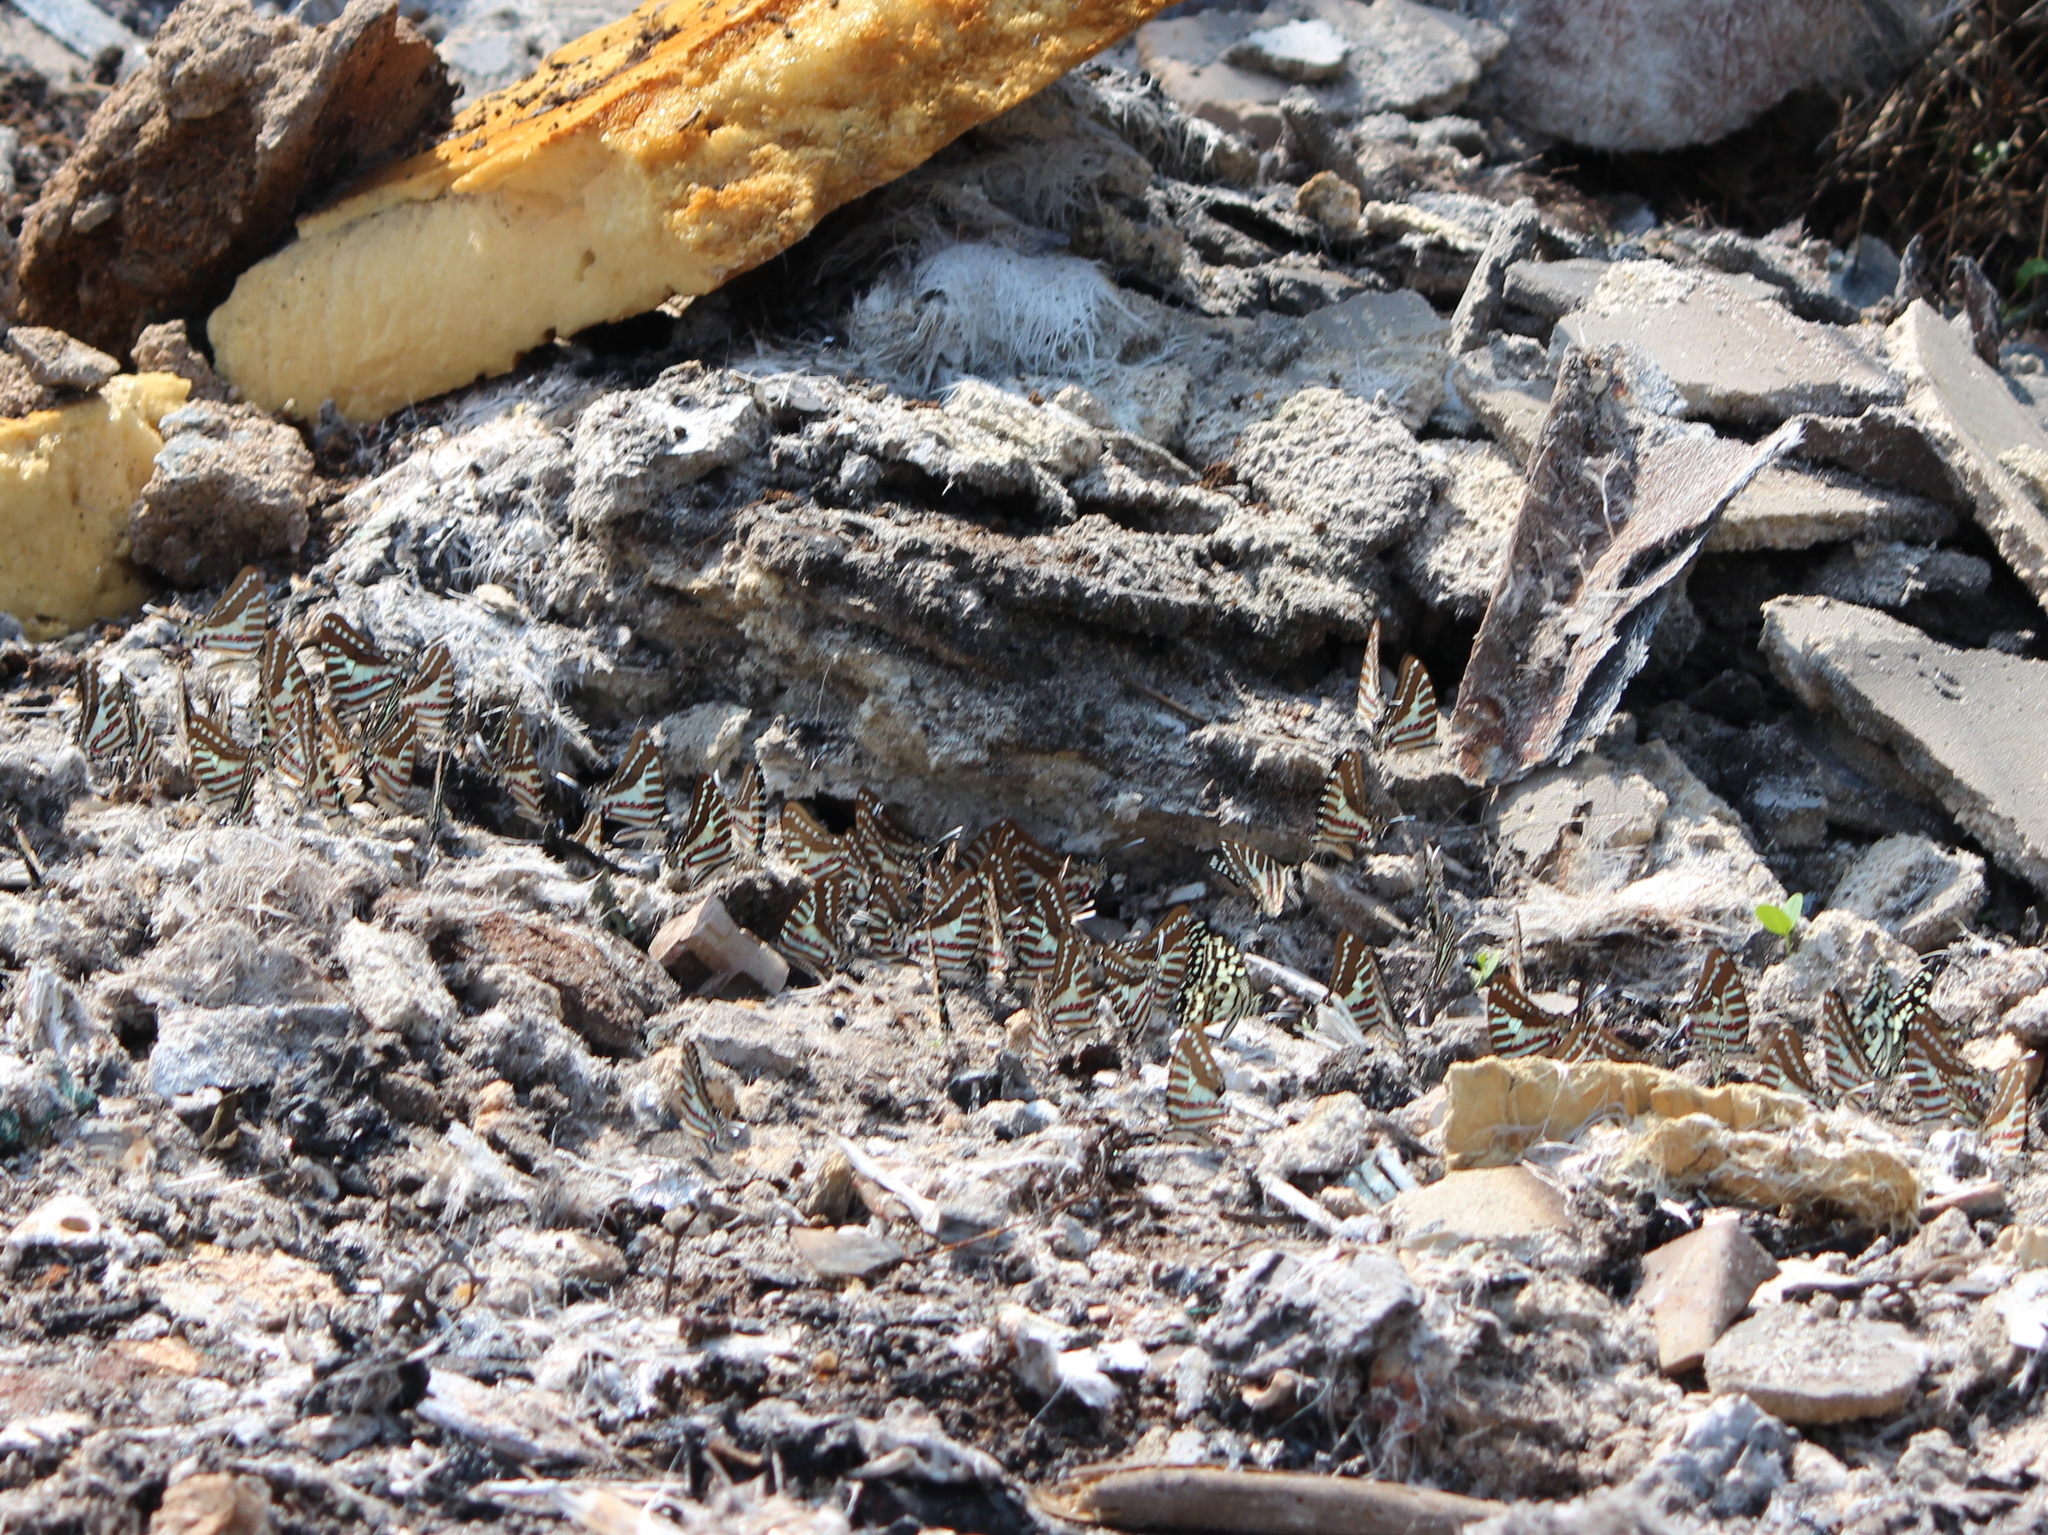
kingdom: Animalia
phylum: Arthropoda
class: Insecta
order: Lepidoptera
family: Papilionidae
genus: Graphium
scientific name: Graphium nomius
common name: Spot swordtail
